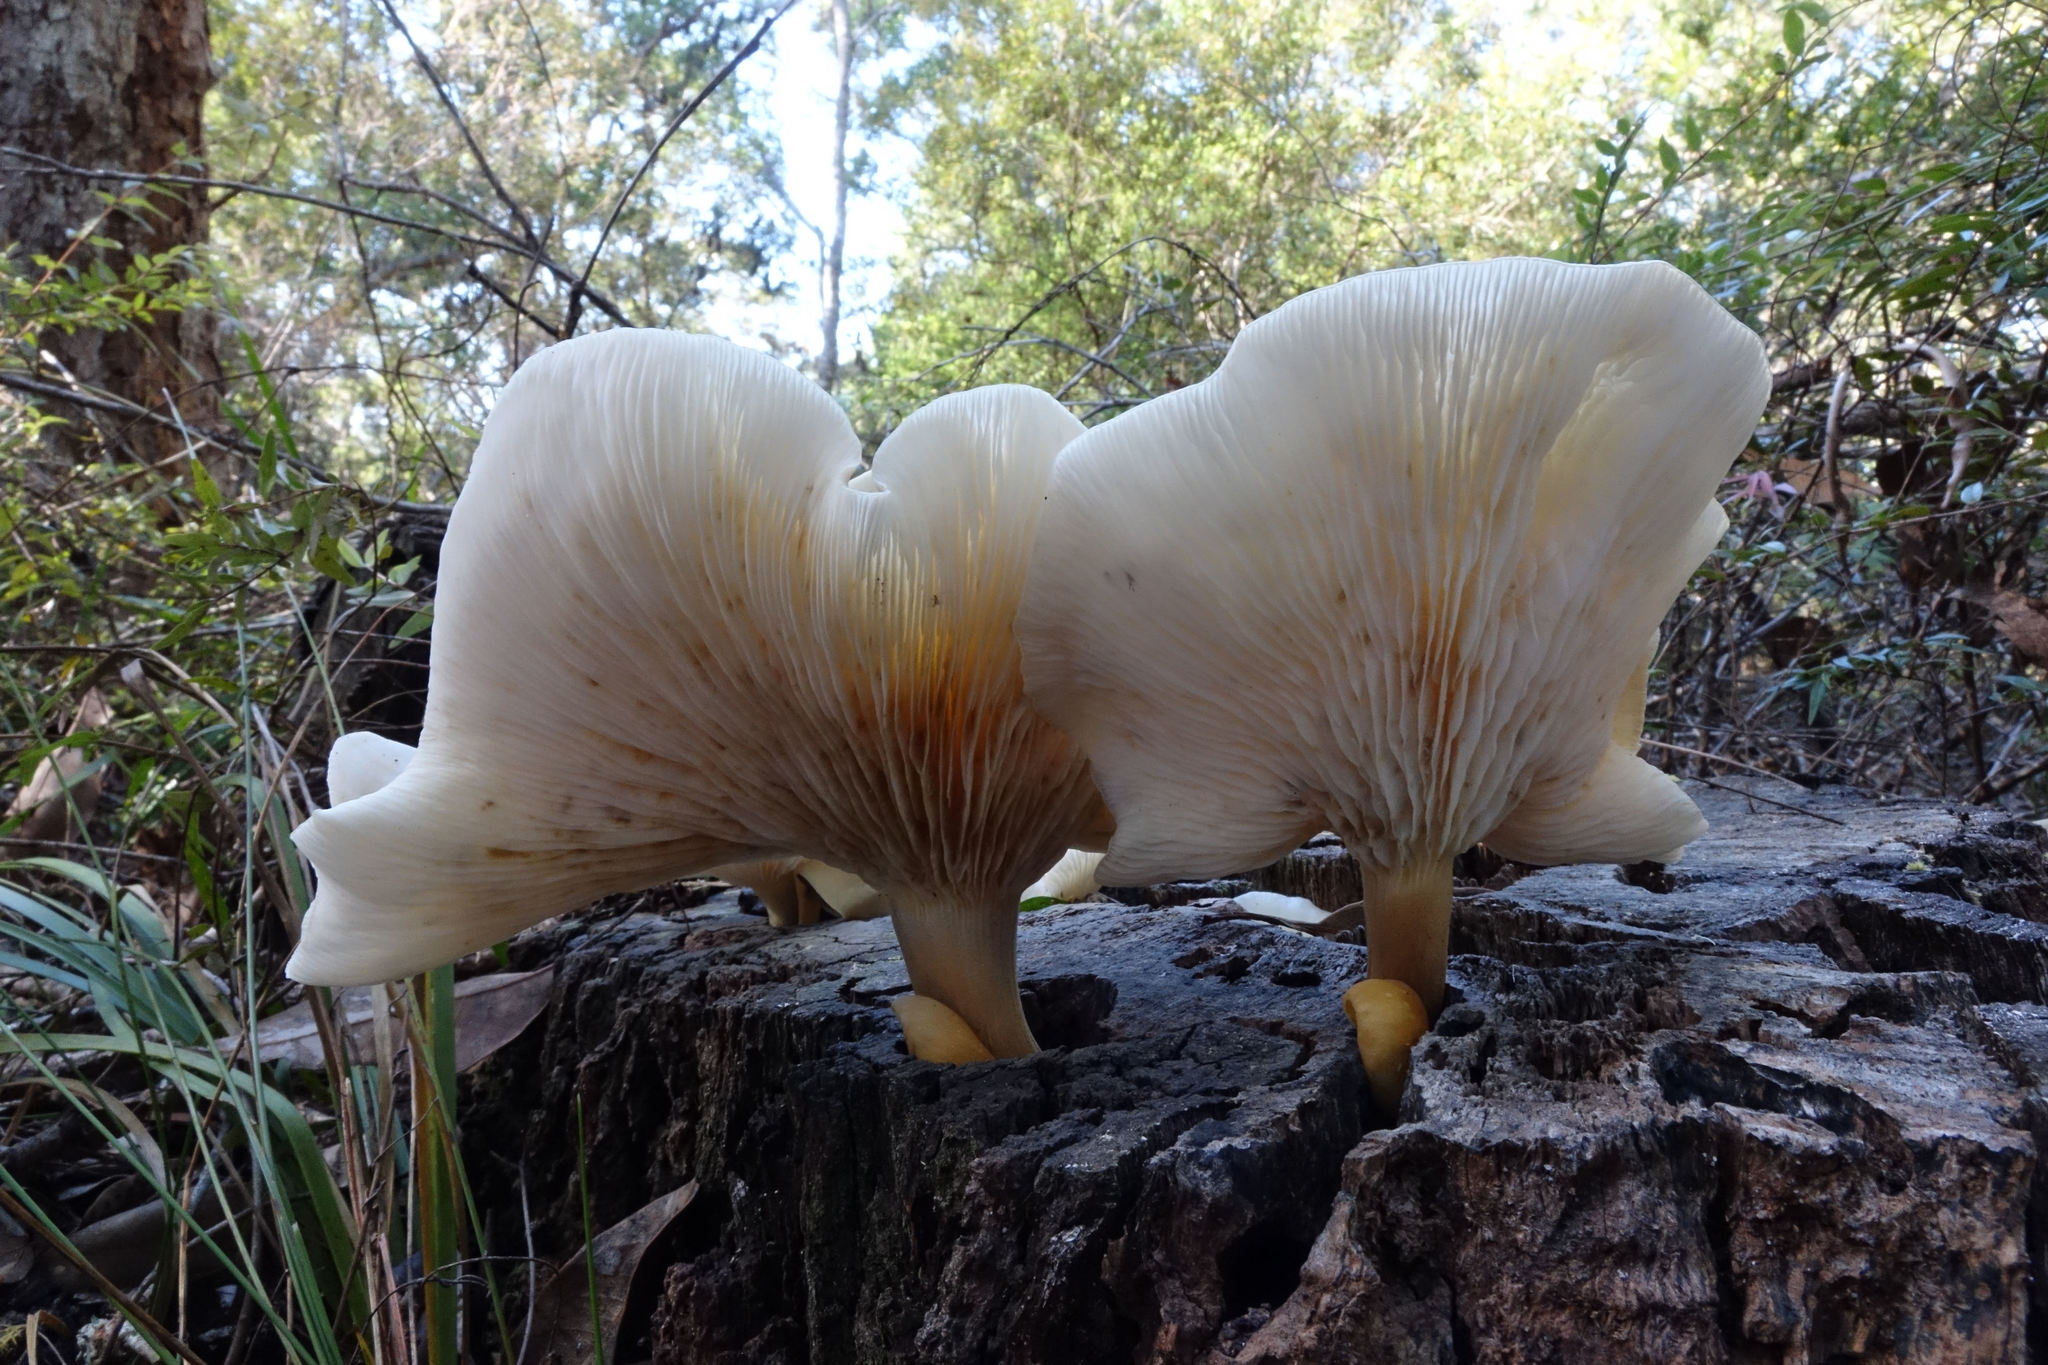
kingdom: Fungi
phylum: Basidiomycota
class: Agaricomycetes
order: Agaricales
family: Omphalotaceae
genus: Omphalotus
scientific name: Omphalotus nidiformis
